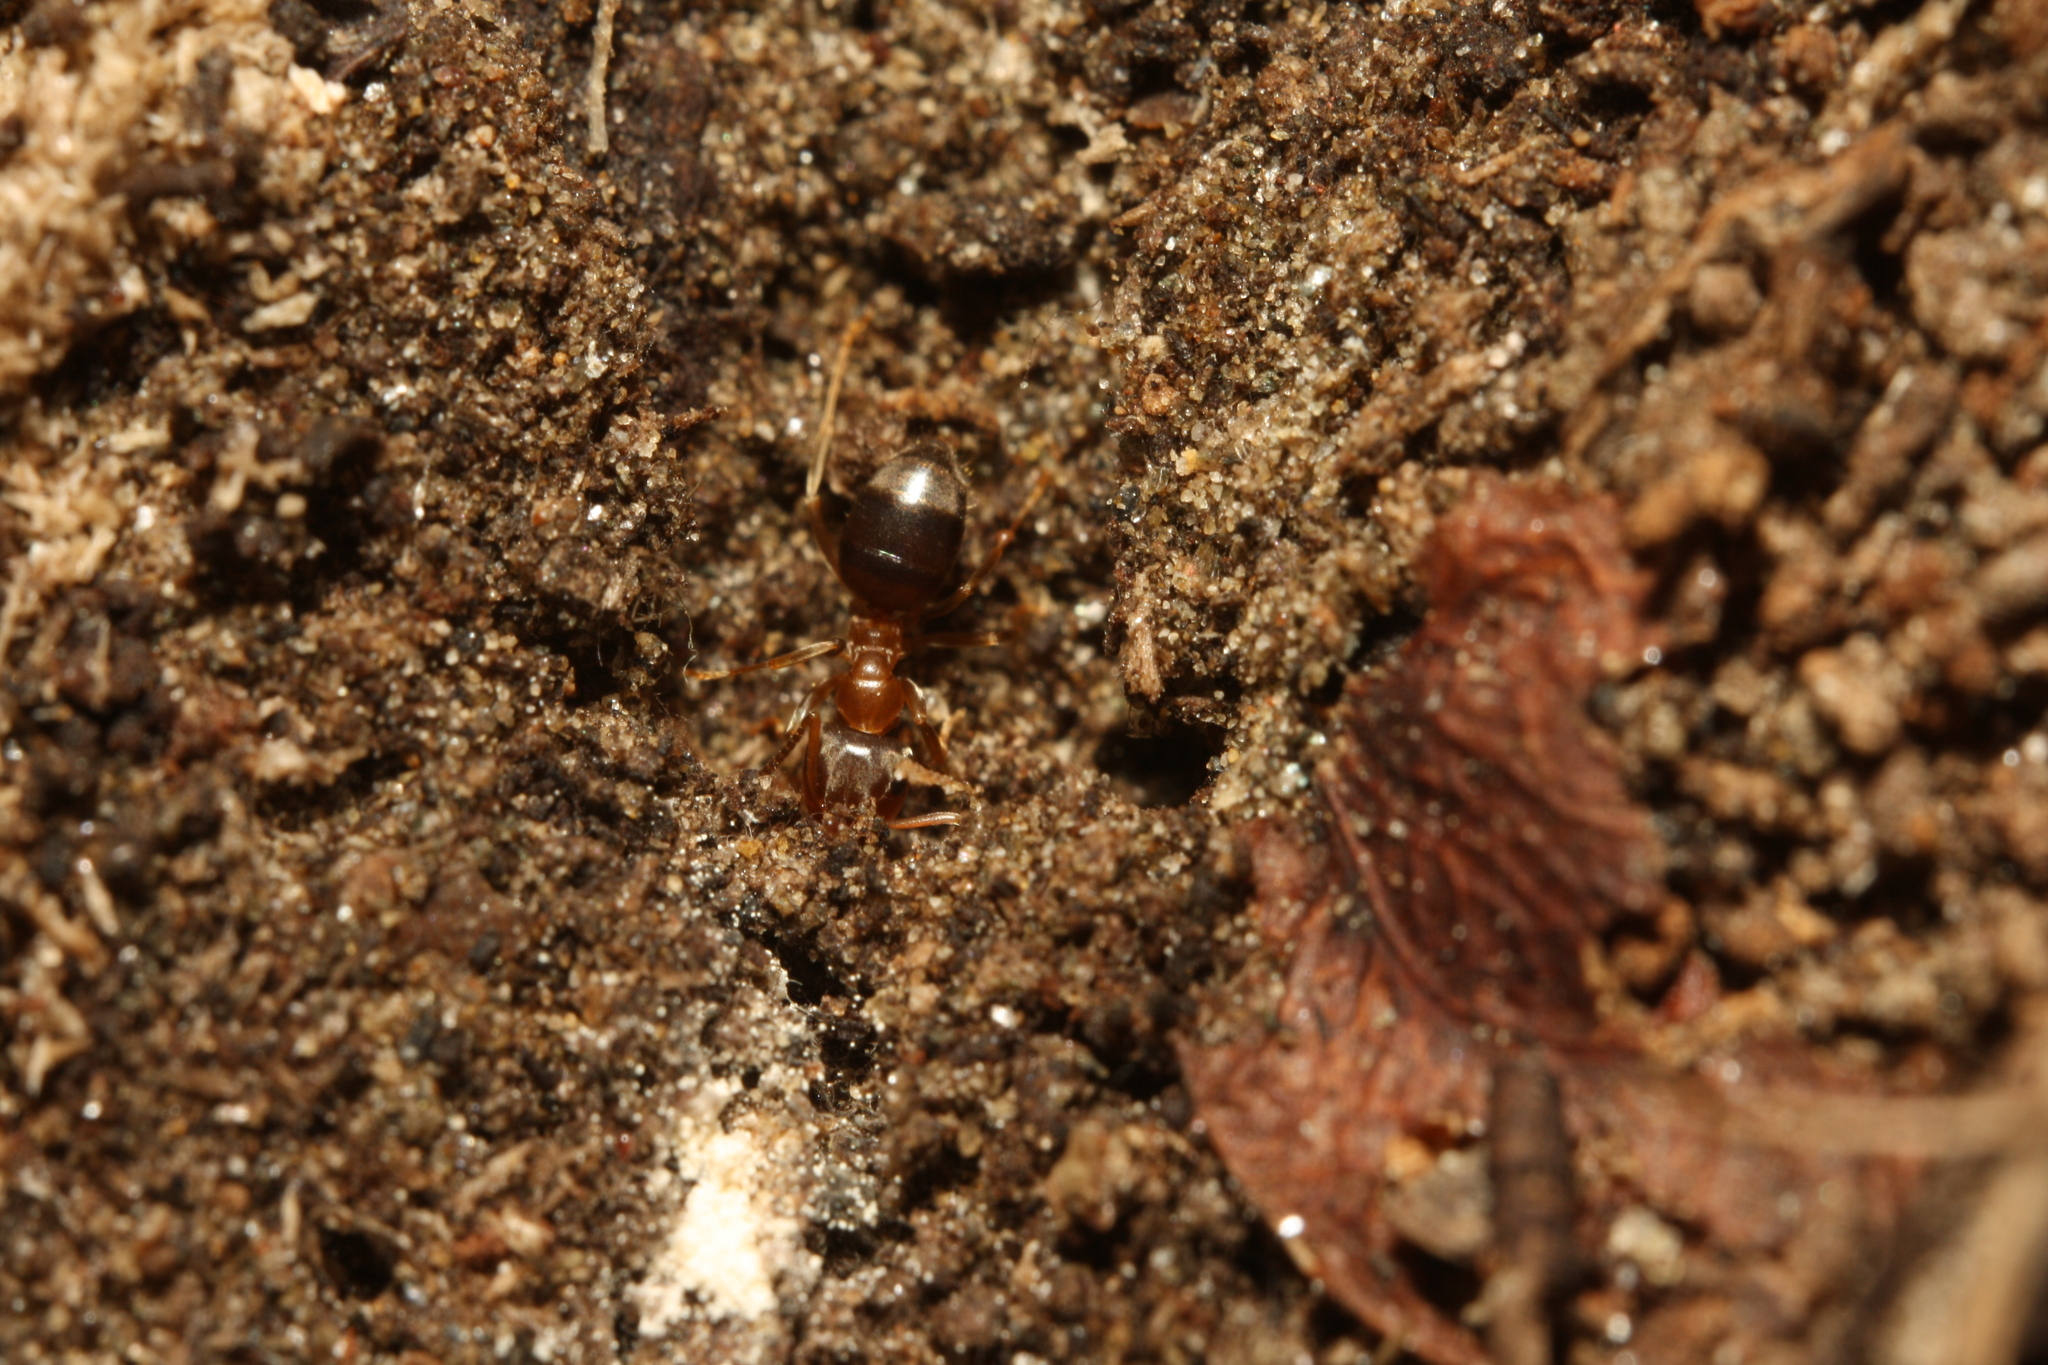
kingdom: Animalia
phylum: Arthropoda
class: Insecta
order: Hymenoptera
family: Formicidae
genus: Lasius
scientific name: Lasius brunneus
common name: Brown ant
